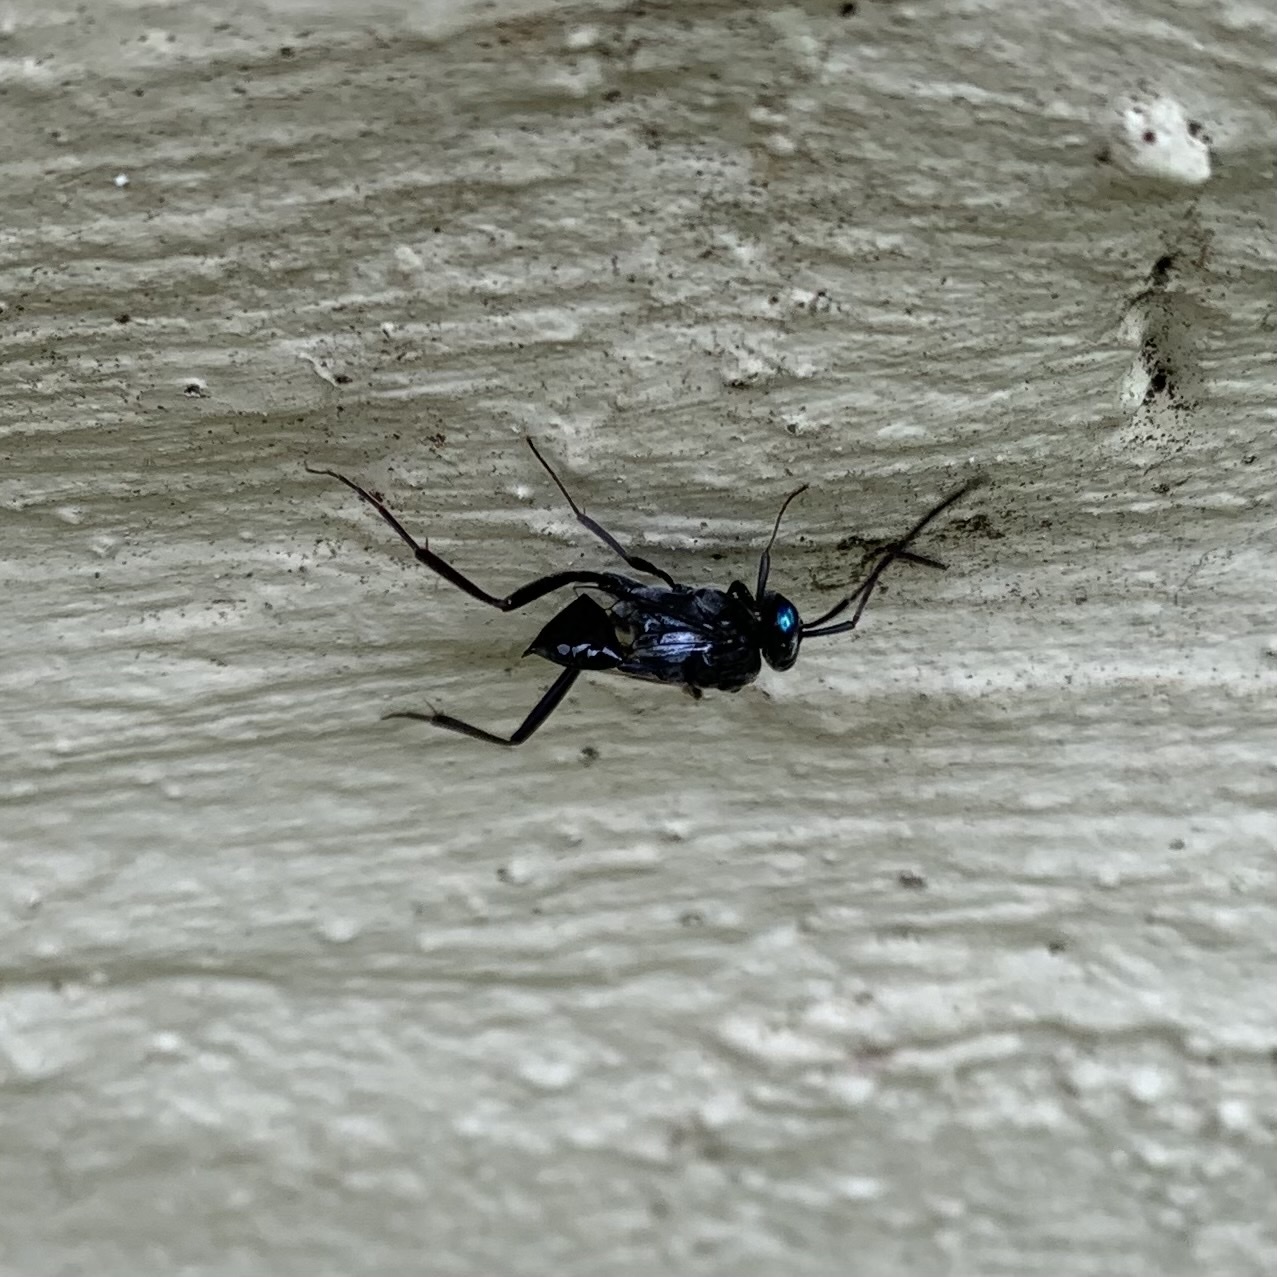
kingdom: Animalia
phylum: Arthropoda
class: Insecta
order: Hymenoptera
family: Evaniidae
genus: Evania
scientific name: Evania appendigaster
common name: Ensign wasp
